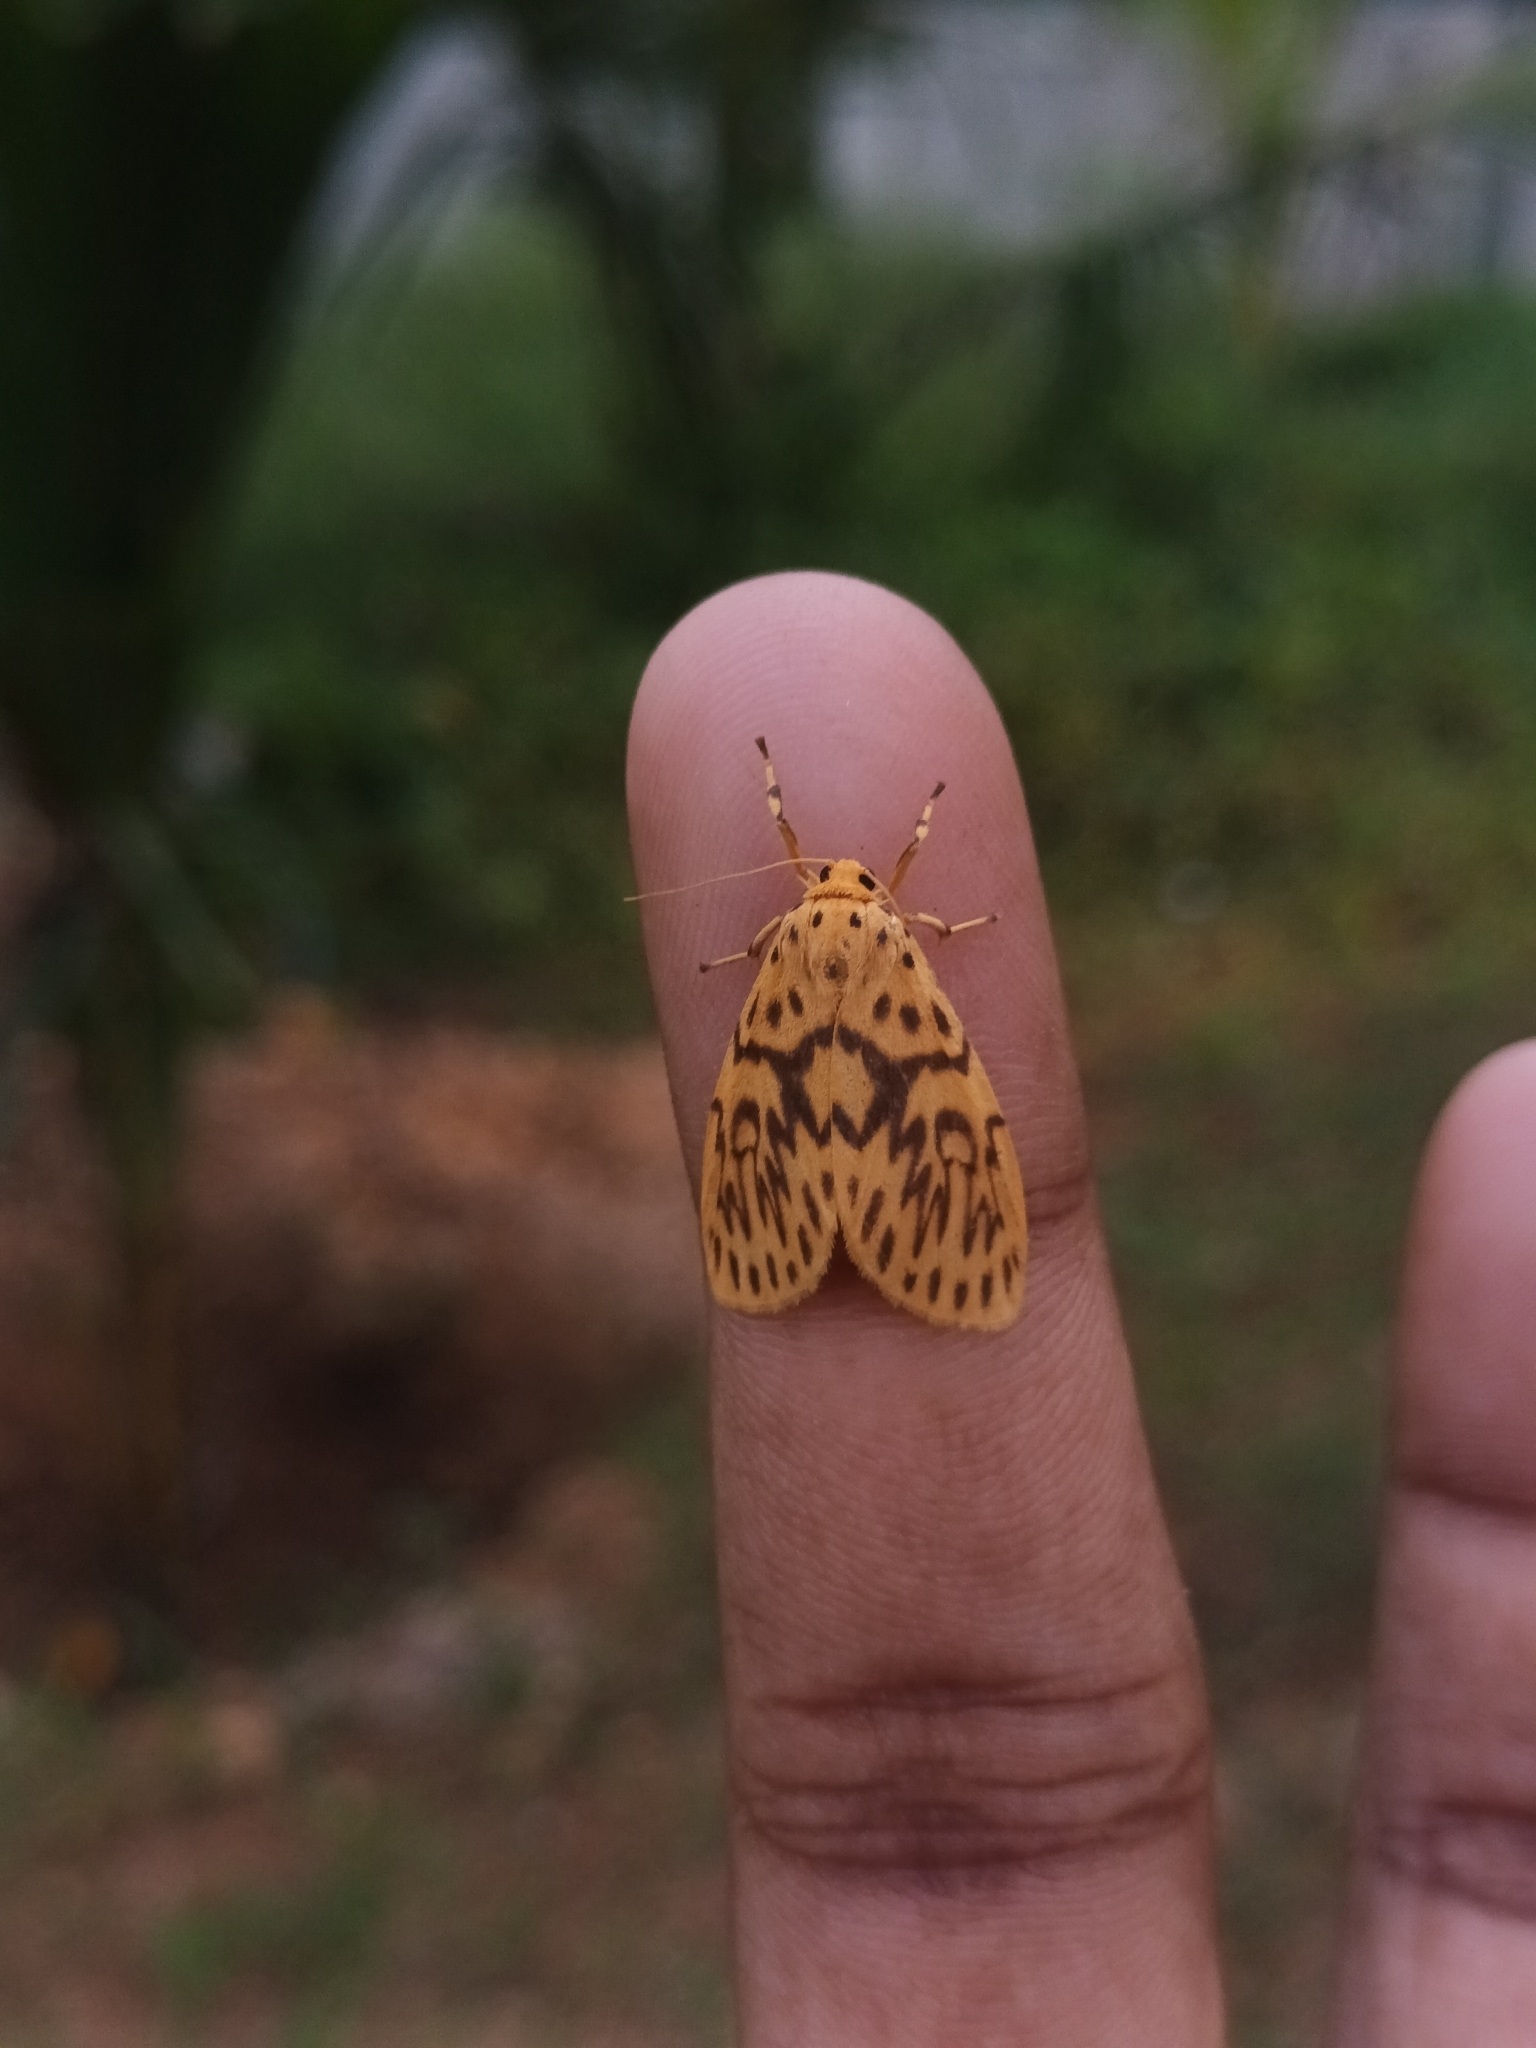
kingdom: Animalia
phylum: Arthropoda
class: Insecta
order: Lepidoptera
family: Erebidae
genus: Barsochrista
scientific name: Barsochrista kishidai
